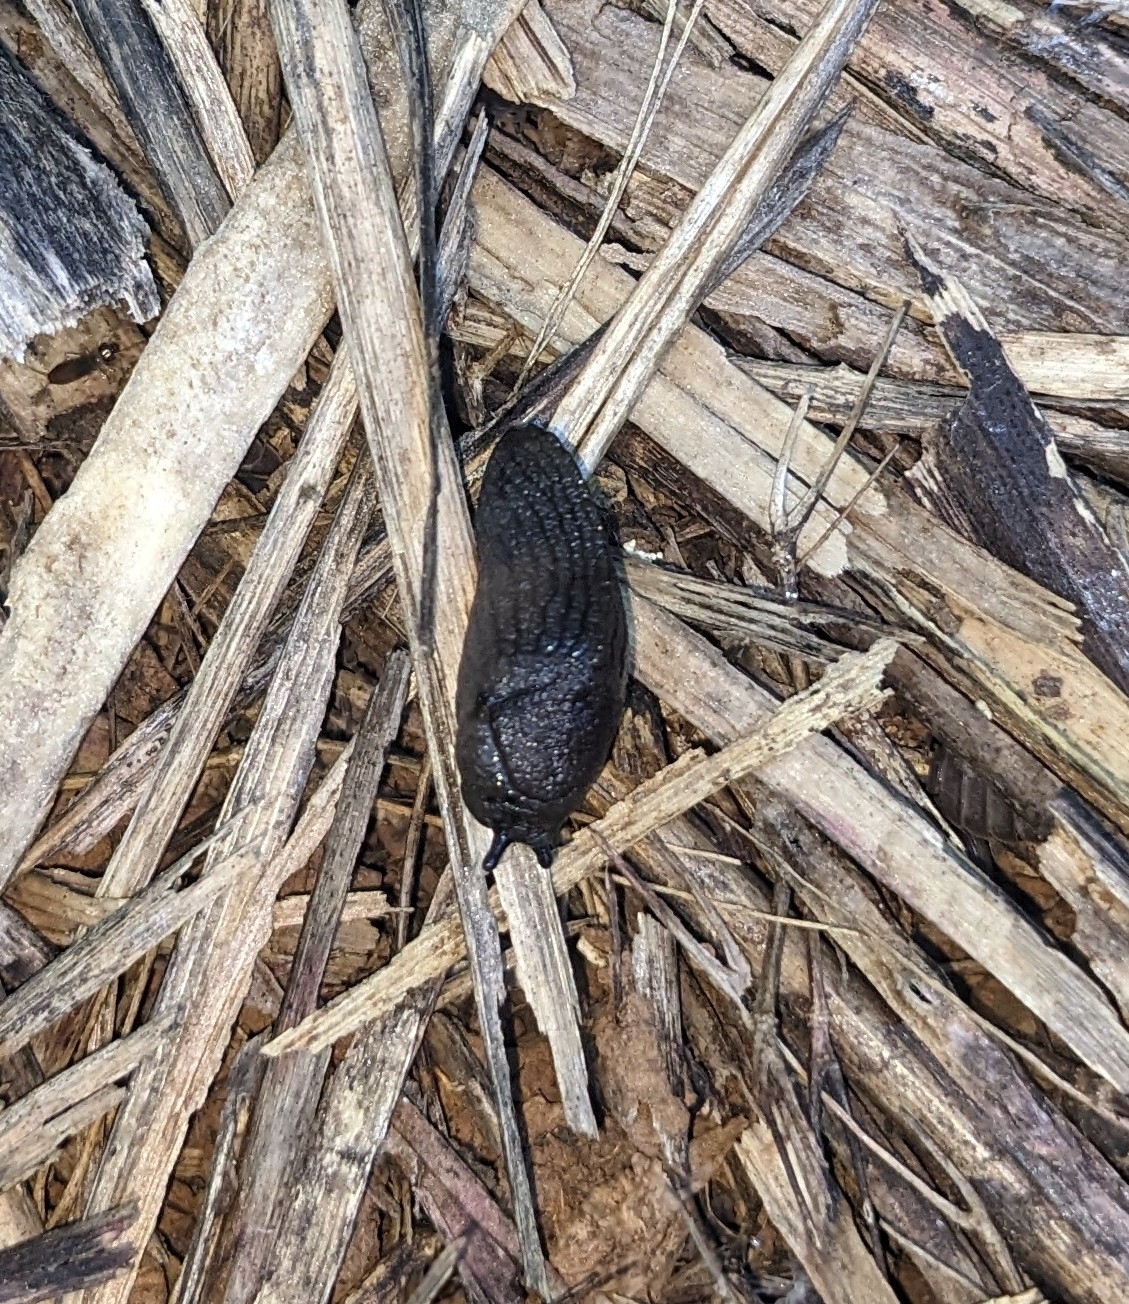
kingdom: Animalia
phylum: Mollusca
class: Gastropoda
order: Stylommatophora
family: Milacidae
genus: Milax
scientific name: Milax gagates
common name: Greenhouse slug
